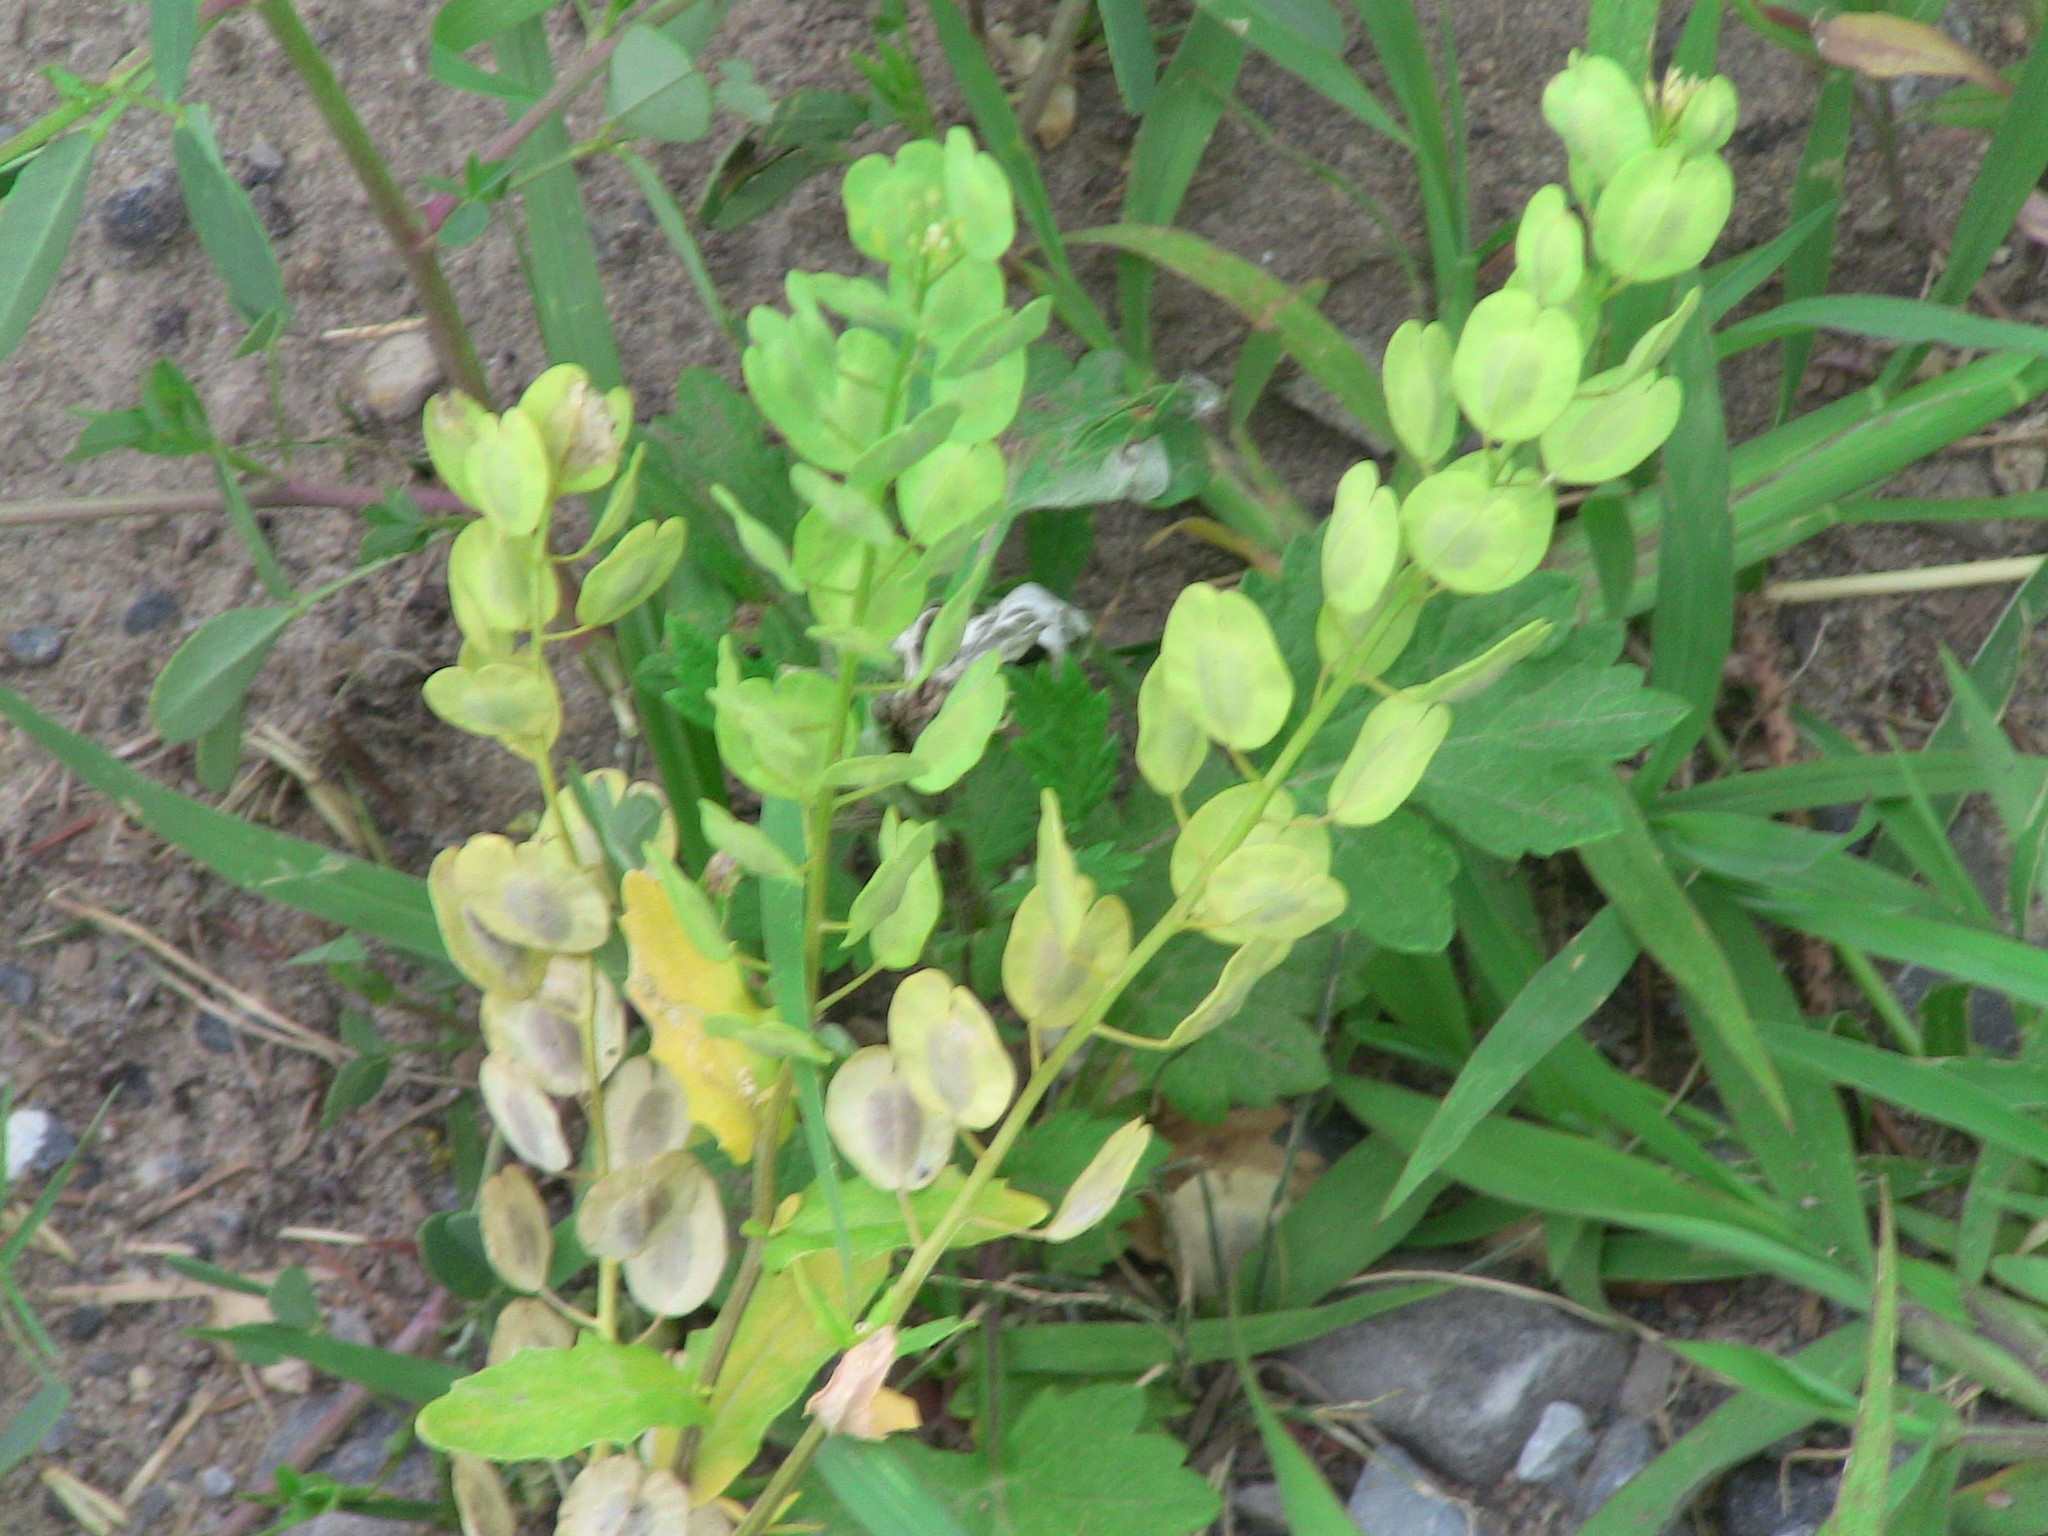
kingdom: Plantae
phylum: Tracheophyta
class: Magnoliopsida
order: Brassicales
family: Brassicaceae
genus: Thlaspi
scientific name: Thlaspi arvense
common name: Field pennycress
